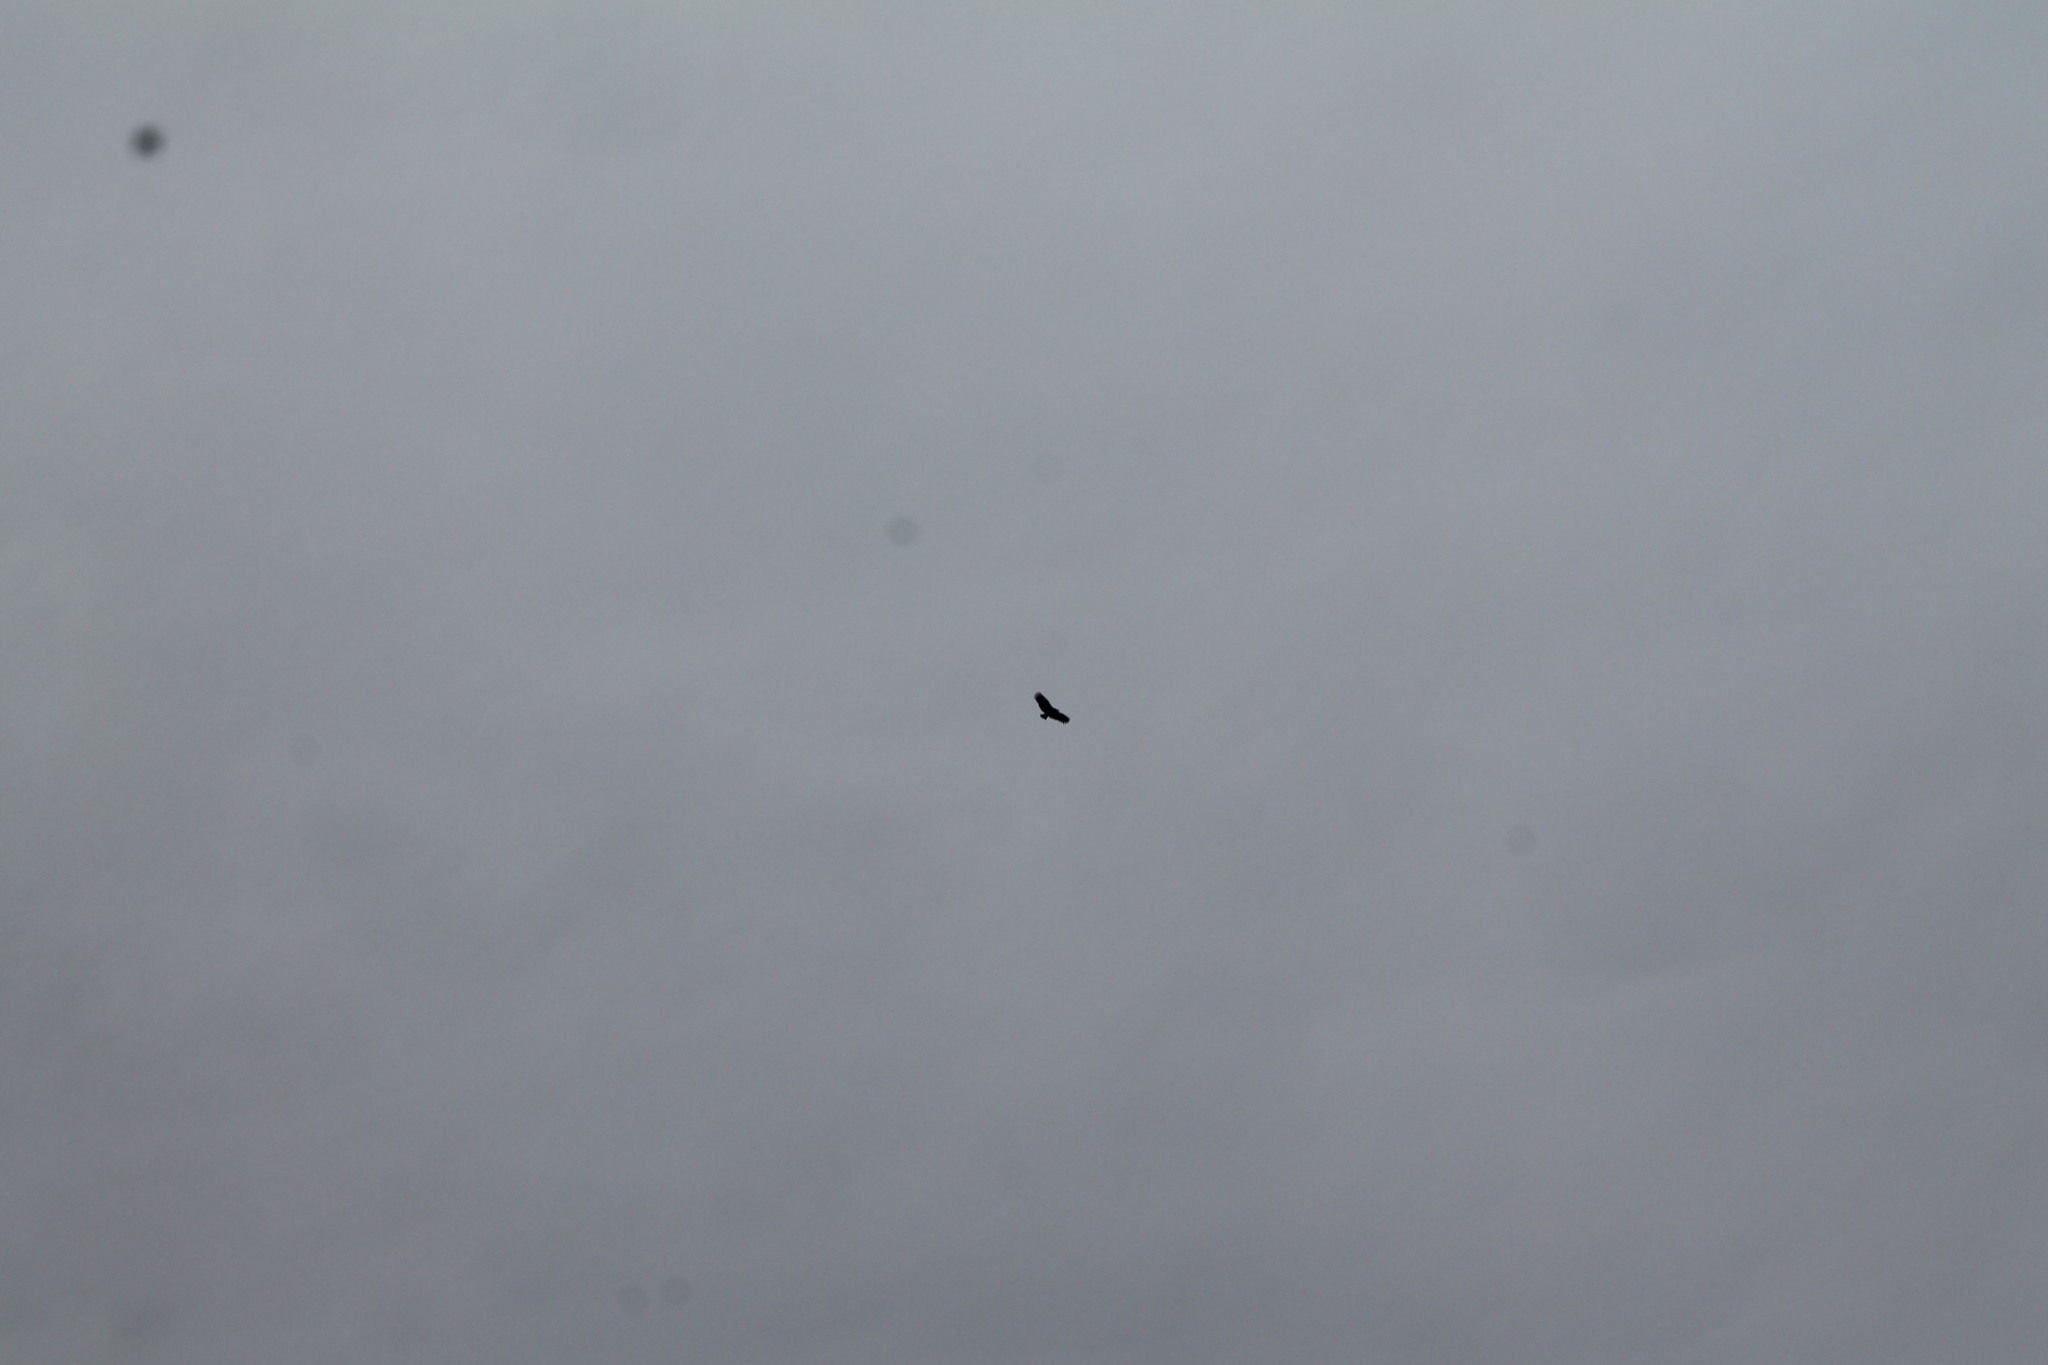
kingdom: Animalia
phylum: Chordata
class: Aves
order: Accipitriformes
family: Cathartidae
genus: Coragyps
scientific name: Coragyps atratus
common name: Black vulture
